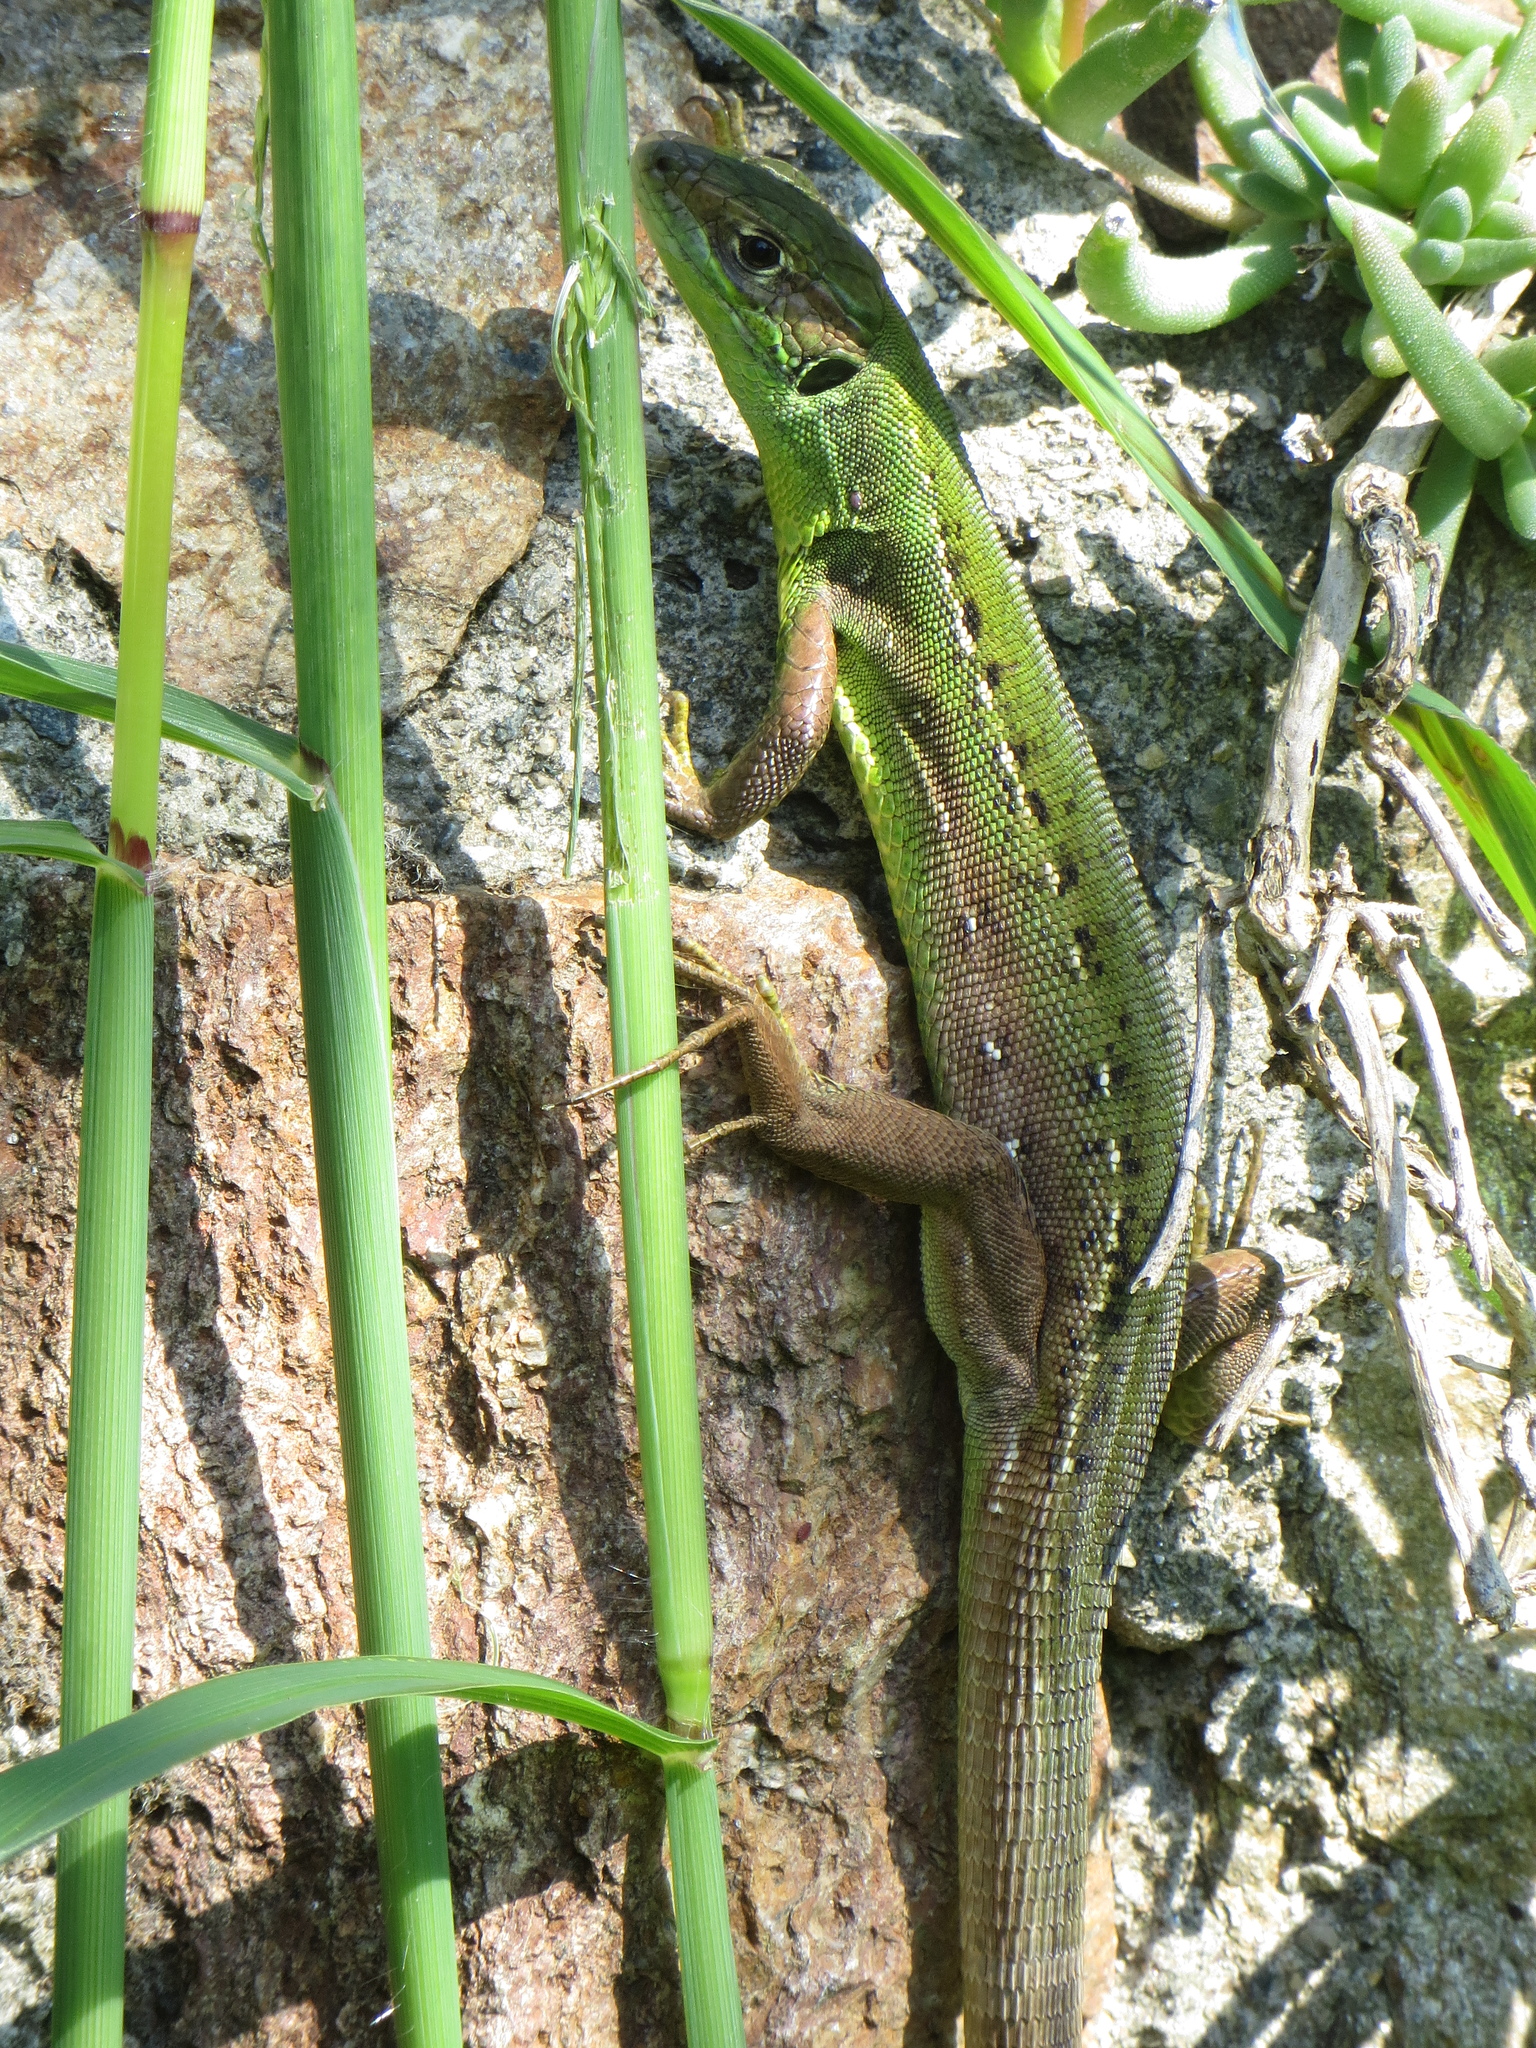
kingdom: Animalia
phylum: Chordata
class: Squamata
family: Lacertidae
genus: Lacerta
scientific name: Lacerta bilineata
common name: Western green lizard
